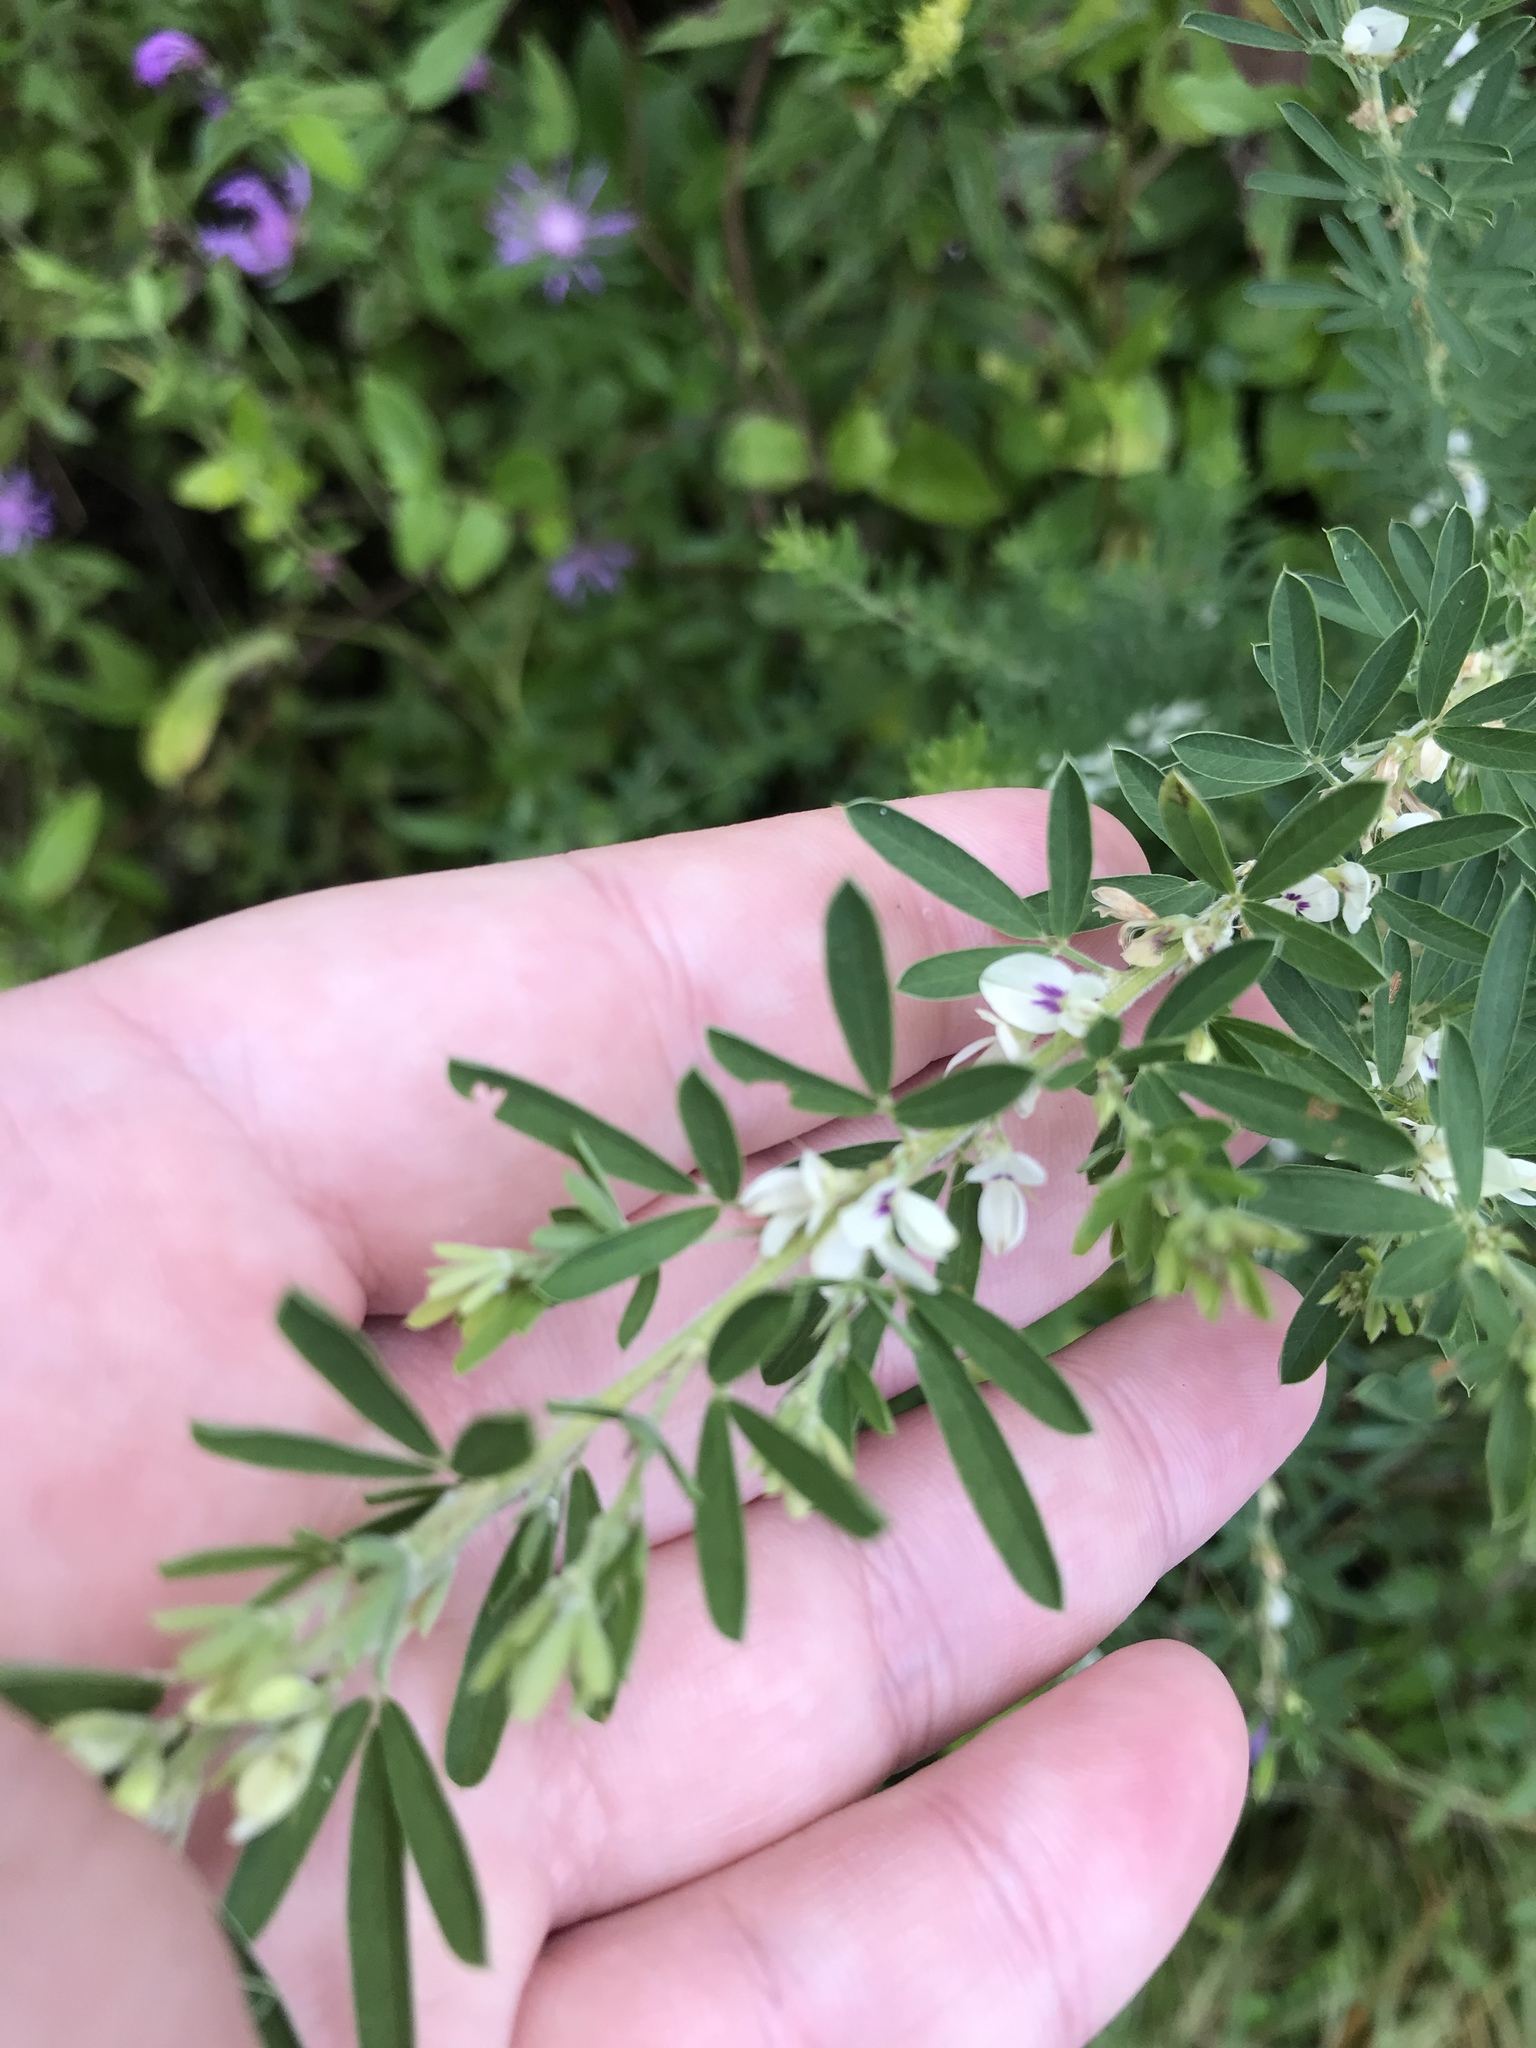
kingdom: Plantae
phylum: Tracheophyta
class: Magnoliopsida
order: Fabales
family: Fabaceae
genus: Lespedeza
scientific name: Lespedeza cuneata
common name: Chinese bush-clover
